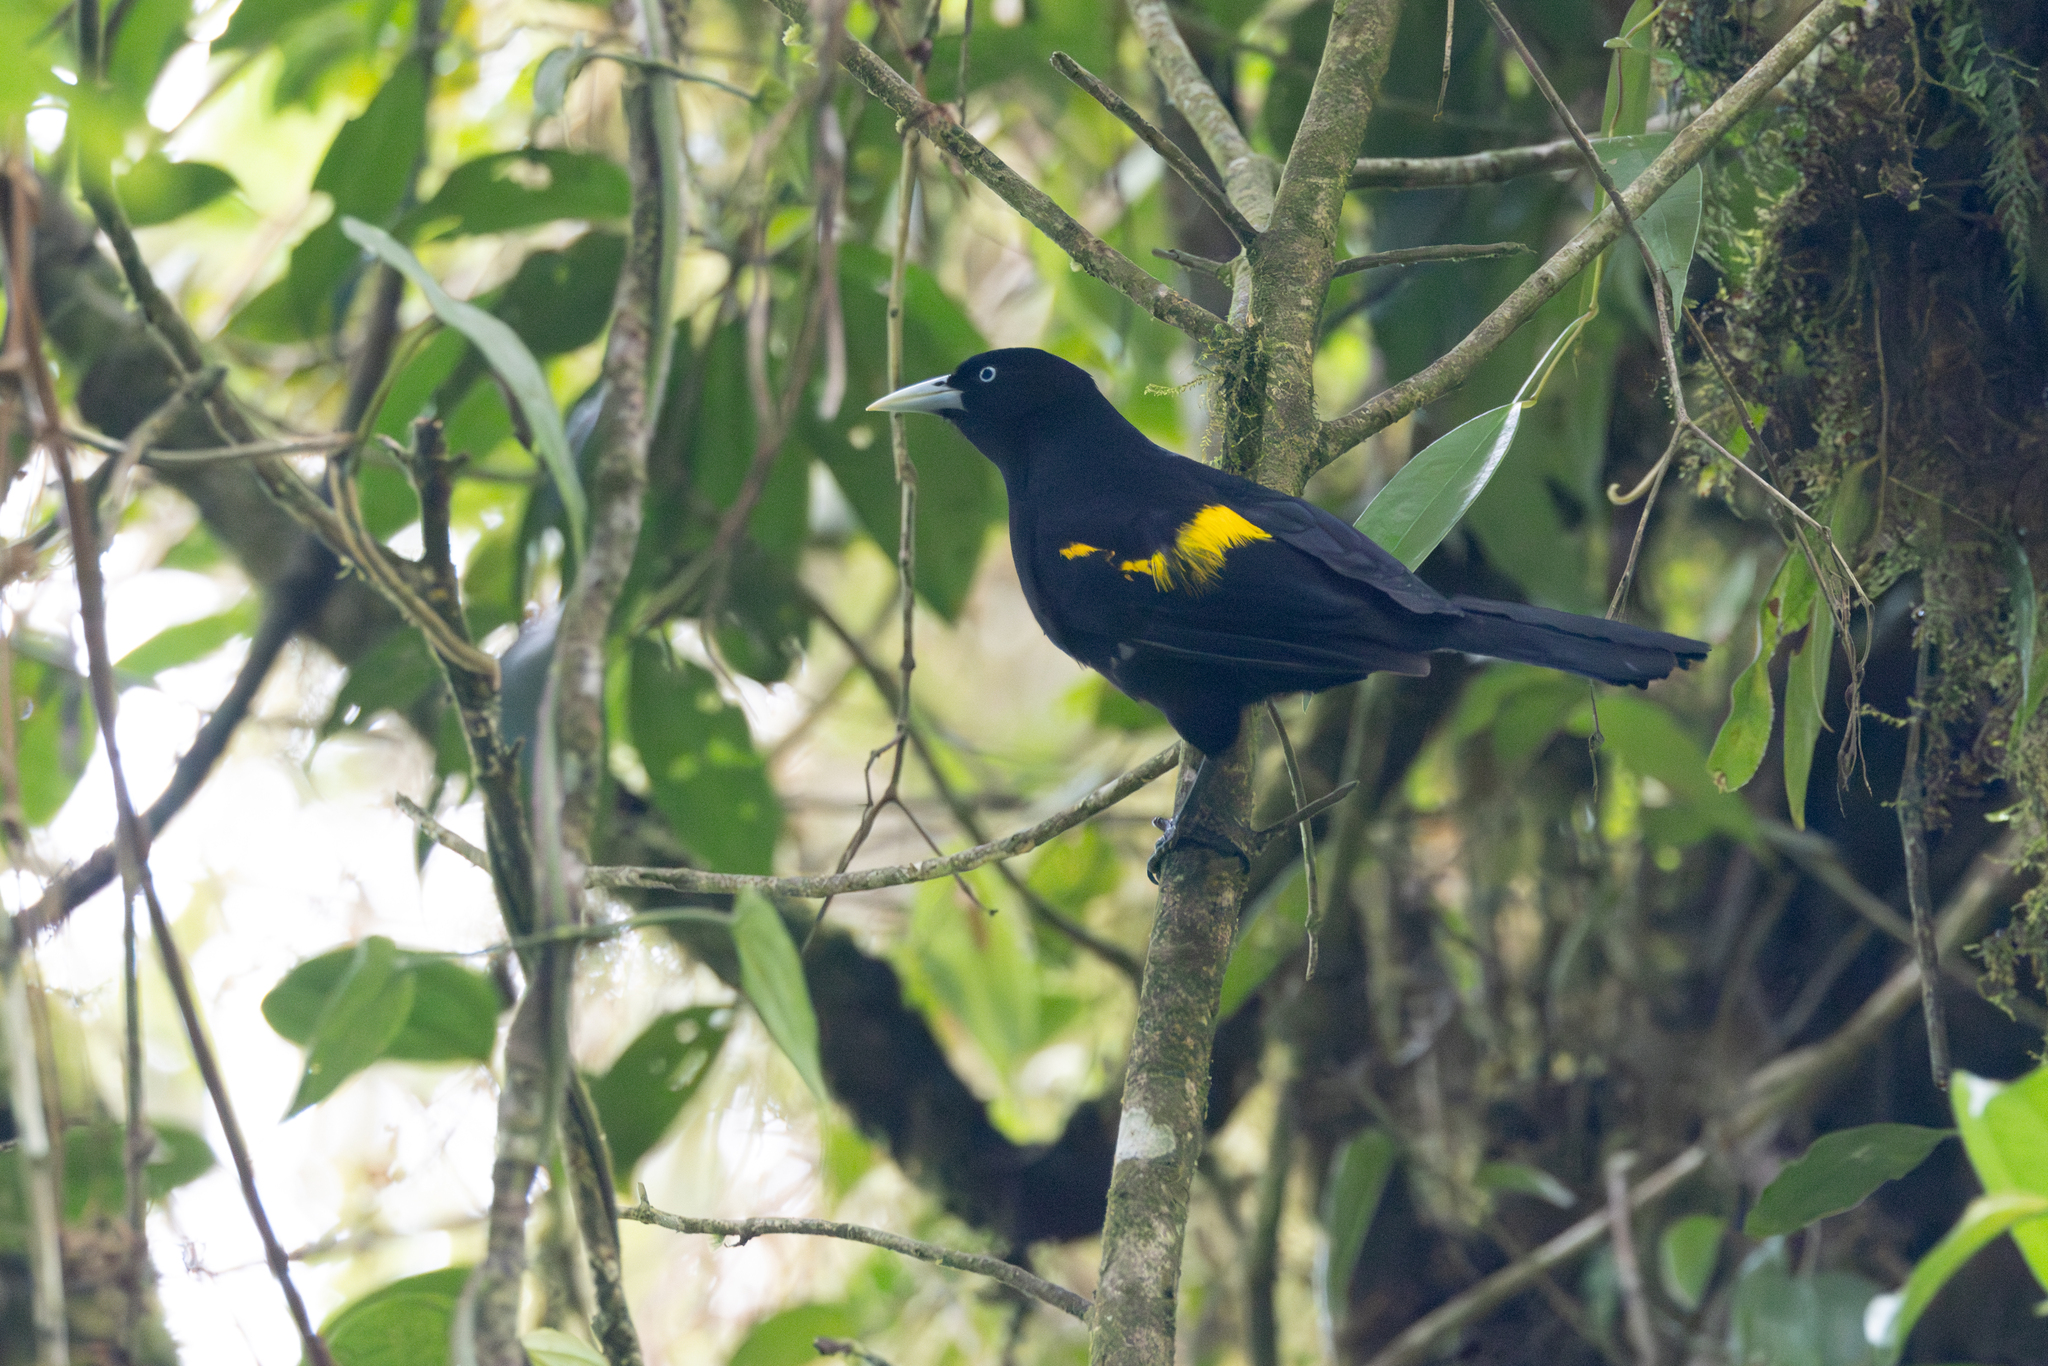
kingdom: Animalia
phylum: Chordata
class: Aves
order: Passeriformes
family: Icteridae
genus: Cacicus
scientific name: Cacicus chrysonotus
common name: Southern mountain cacique
